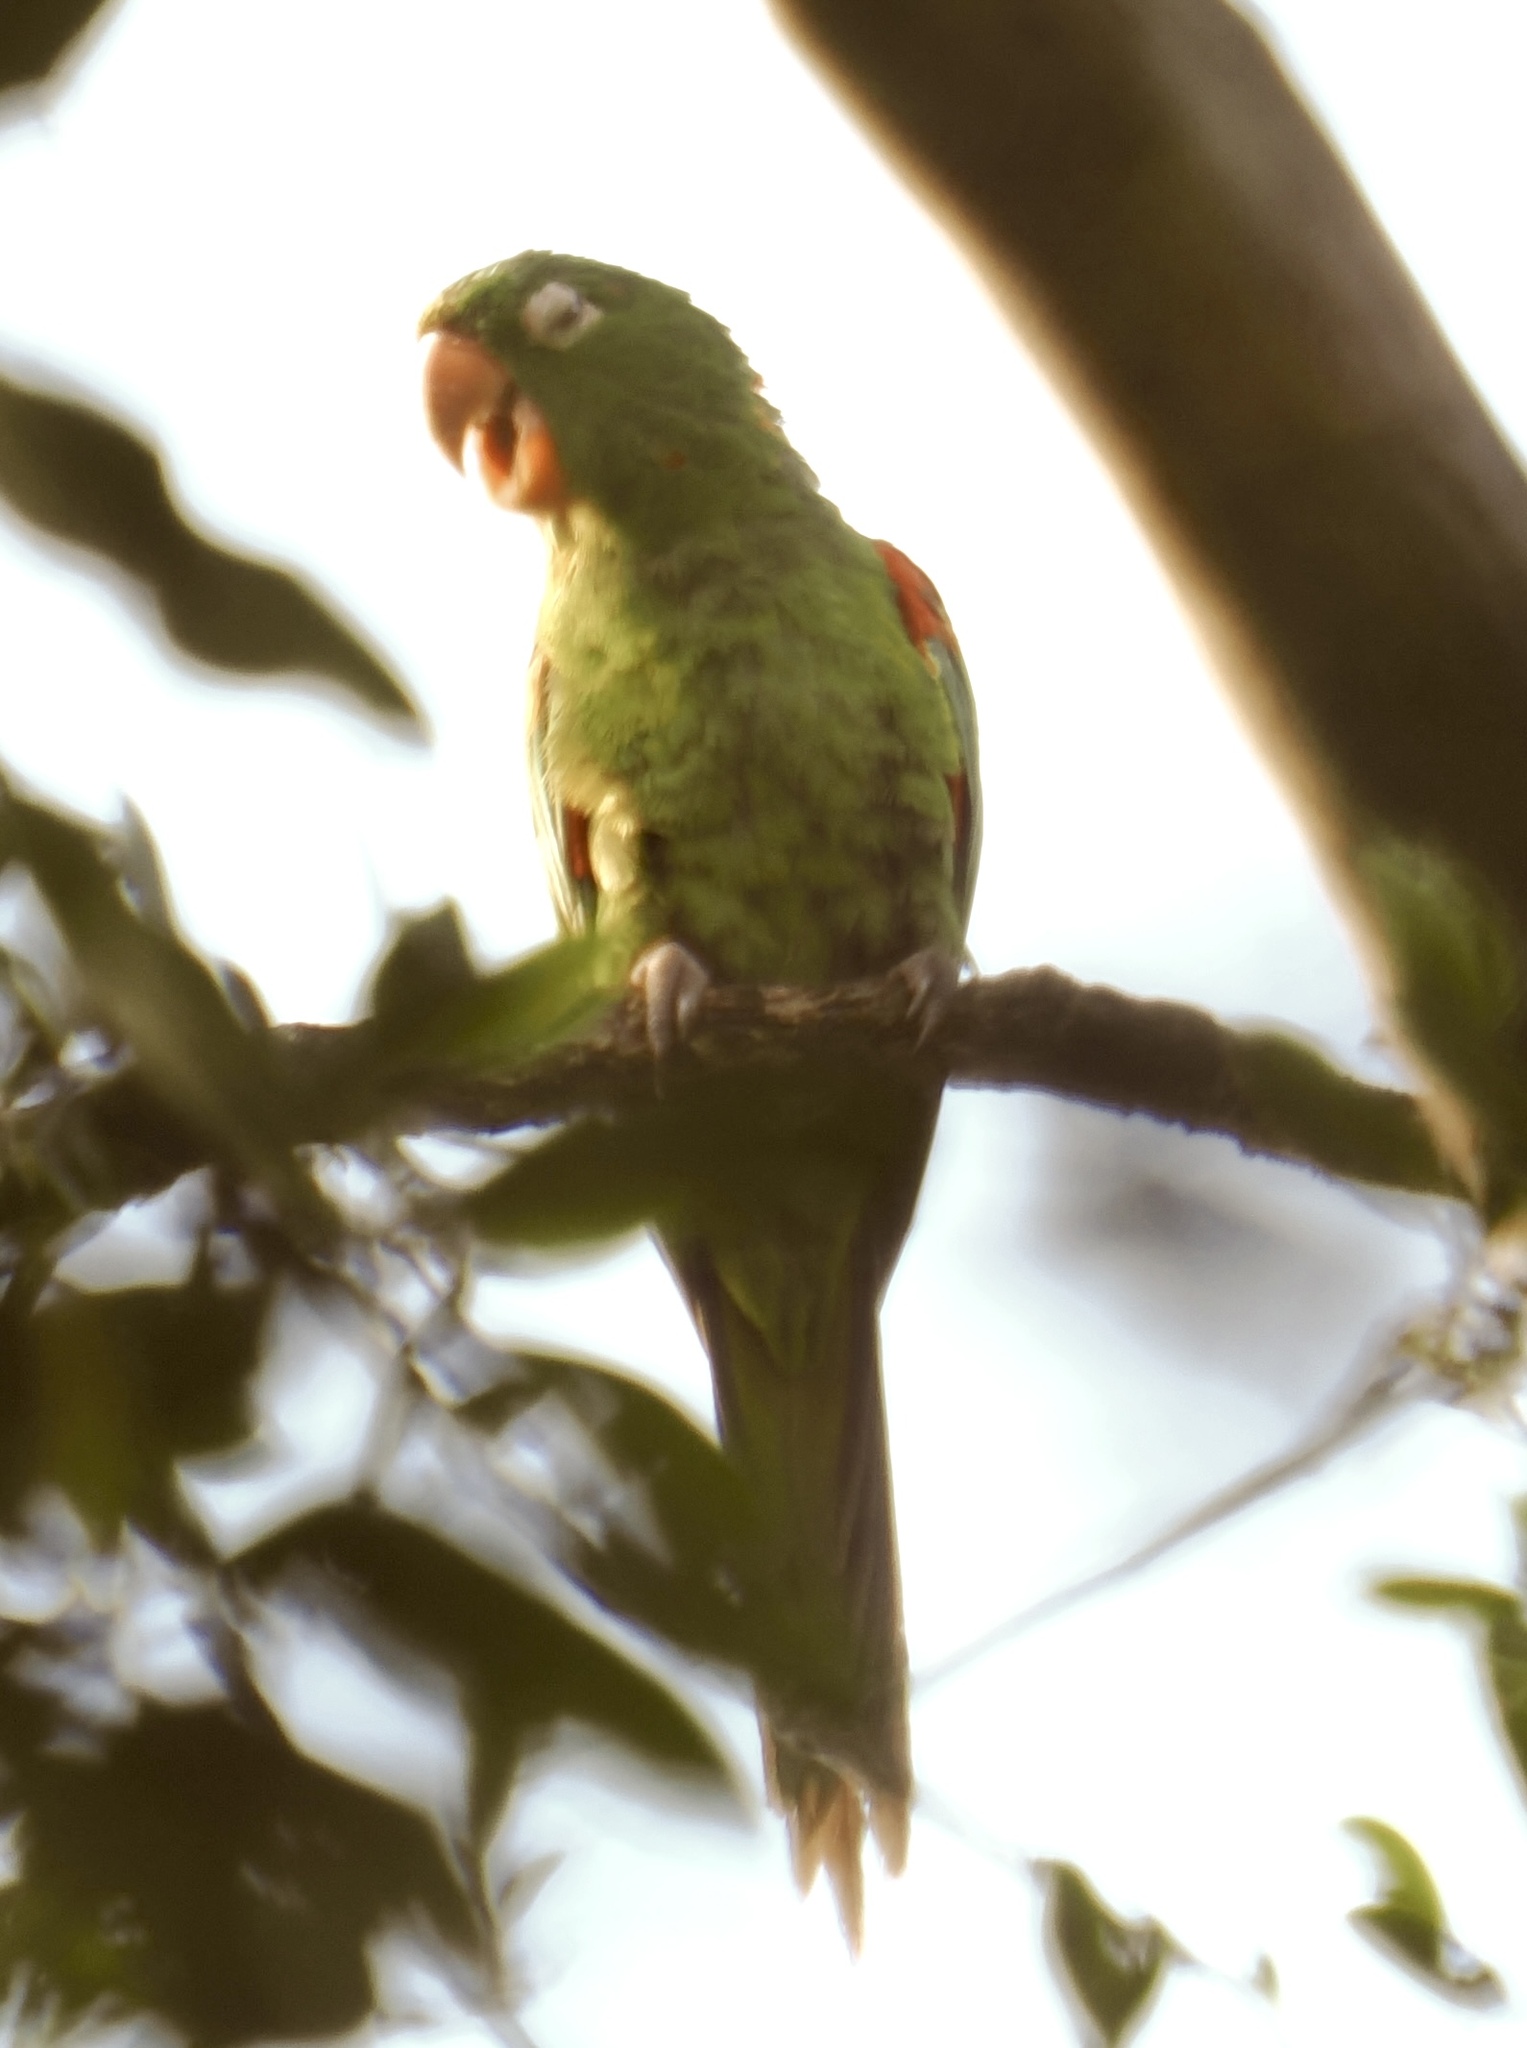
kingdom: Animalia
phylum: Chordata
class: Aves
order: Psittaciformes
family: Psittacidae
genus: Aratinga
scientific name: Aratinga leucophthalma
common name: White-eyed parakeet
